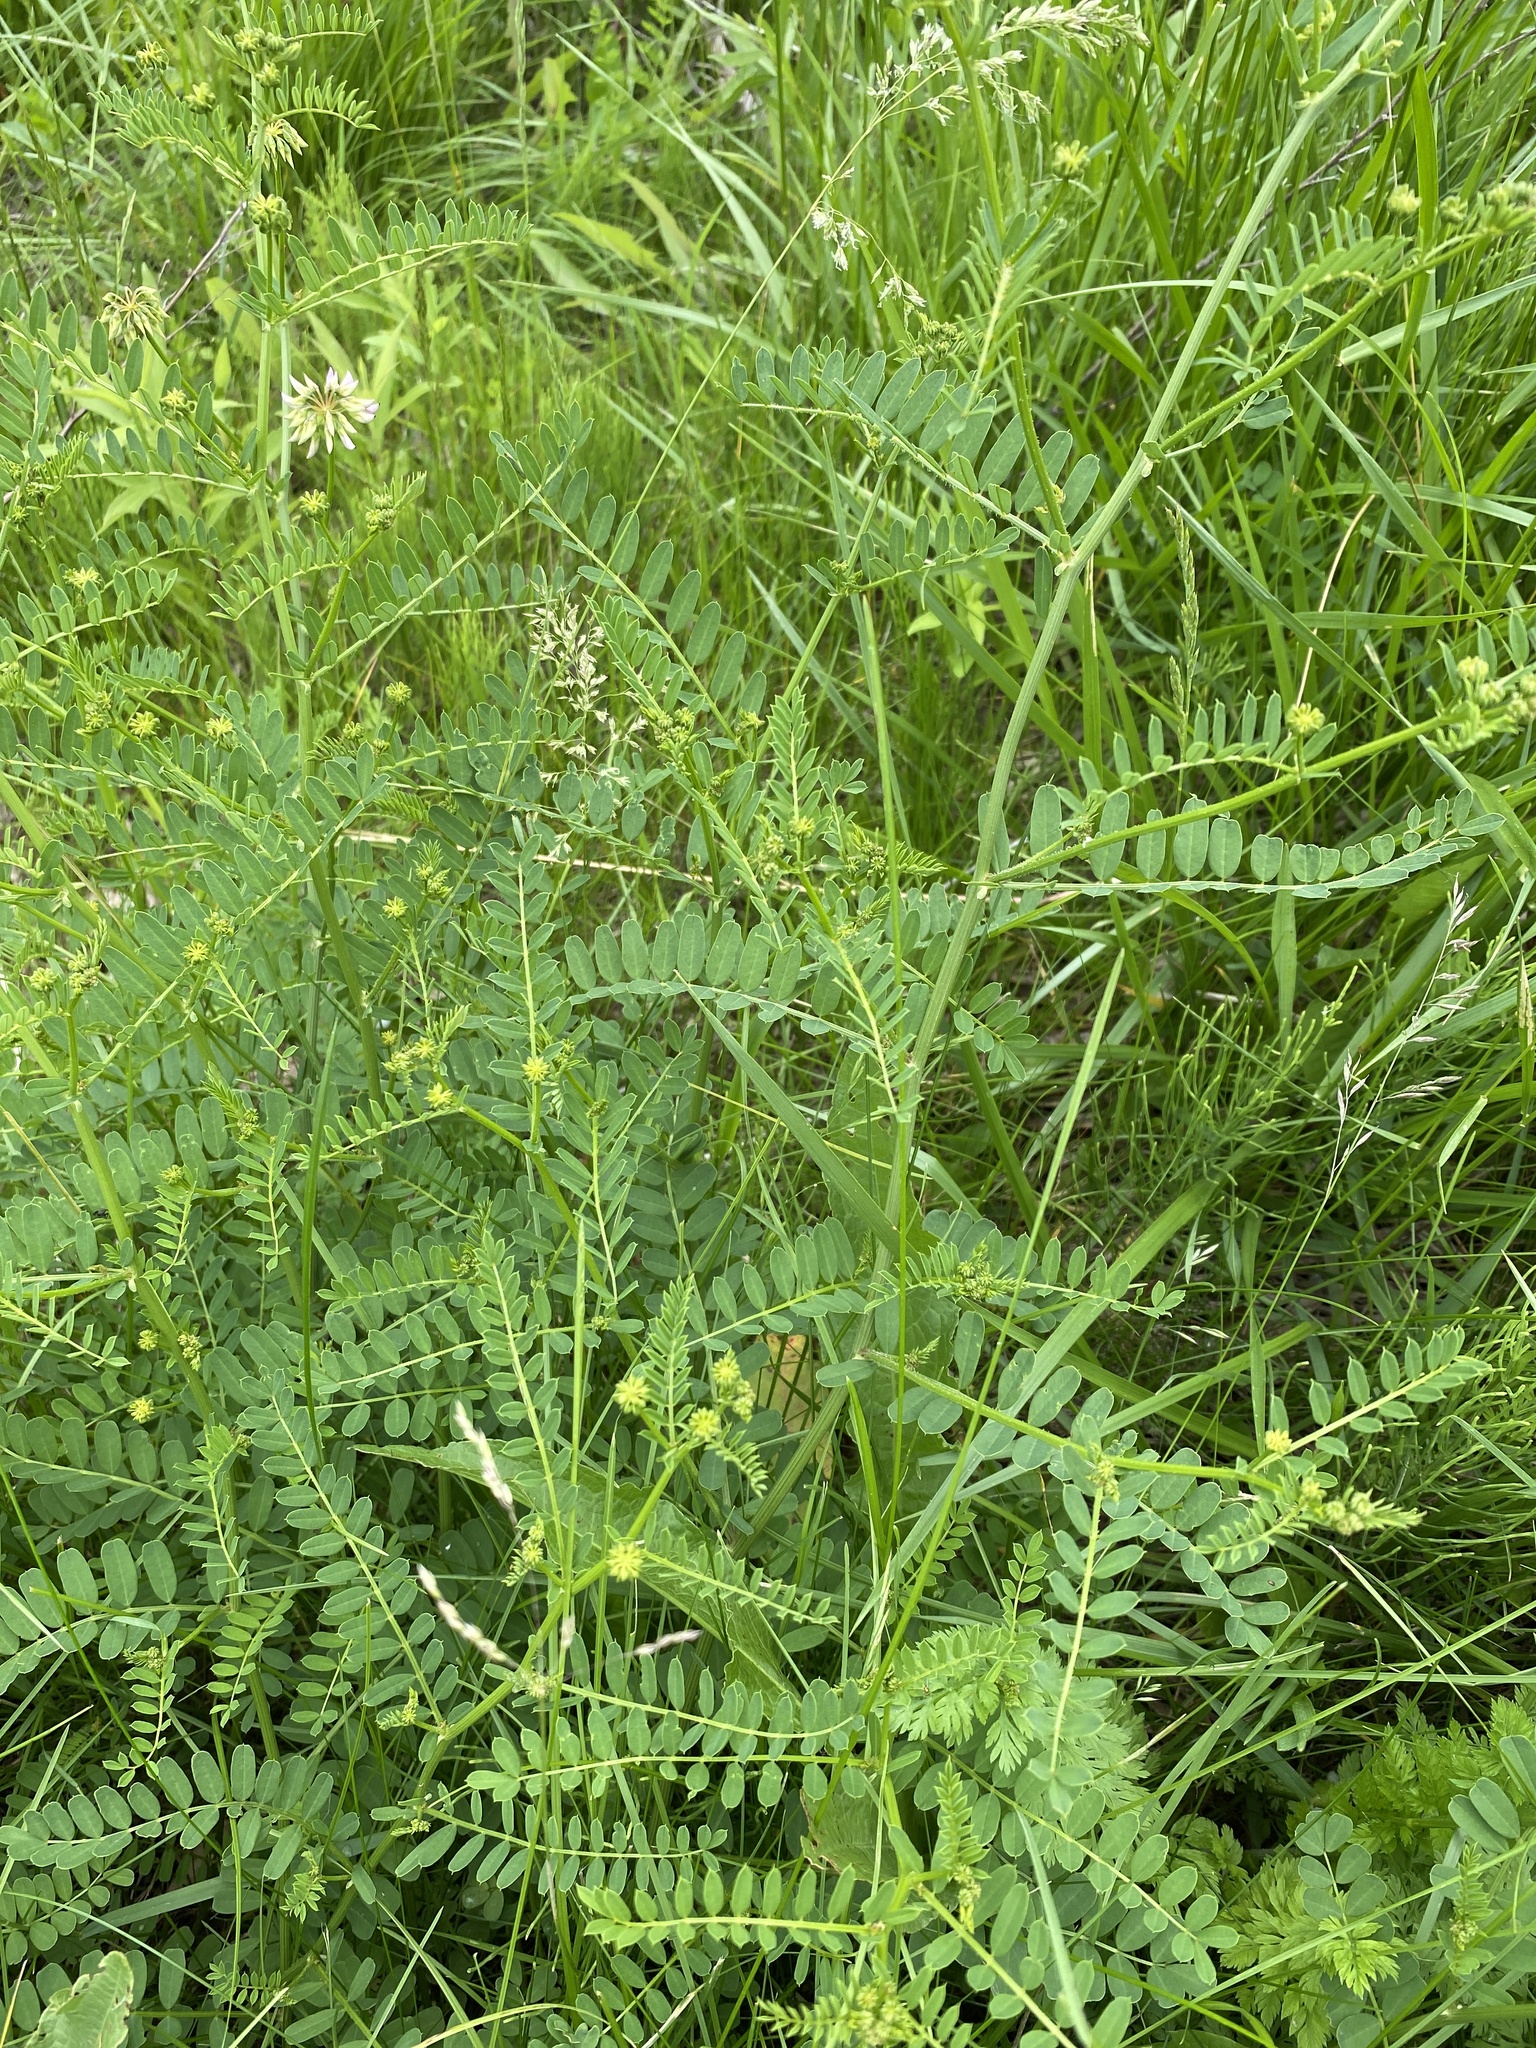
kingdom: Plantae
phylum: Tracheophyta
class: Magnoliopsida
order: Fabales
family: Fabaceae
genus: Coronilla
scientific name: Coronilla varia
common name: Crownvetch
